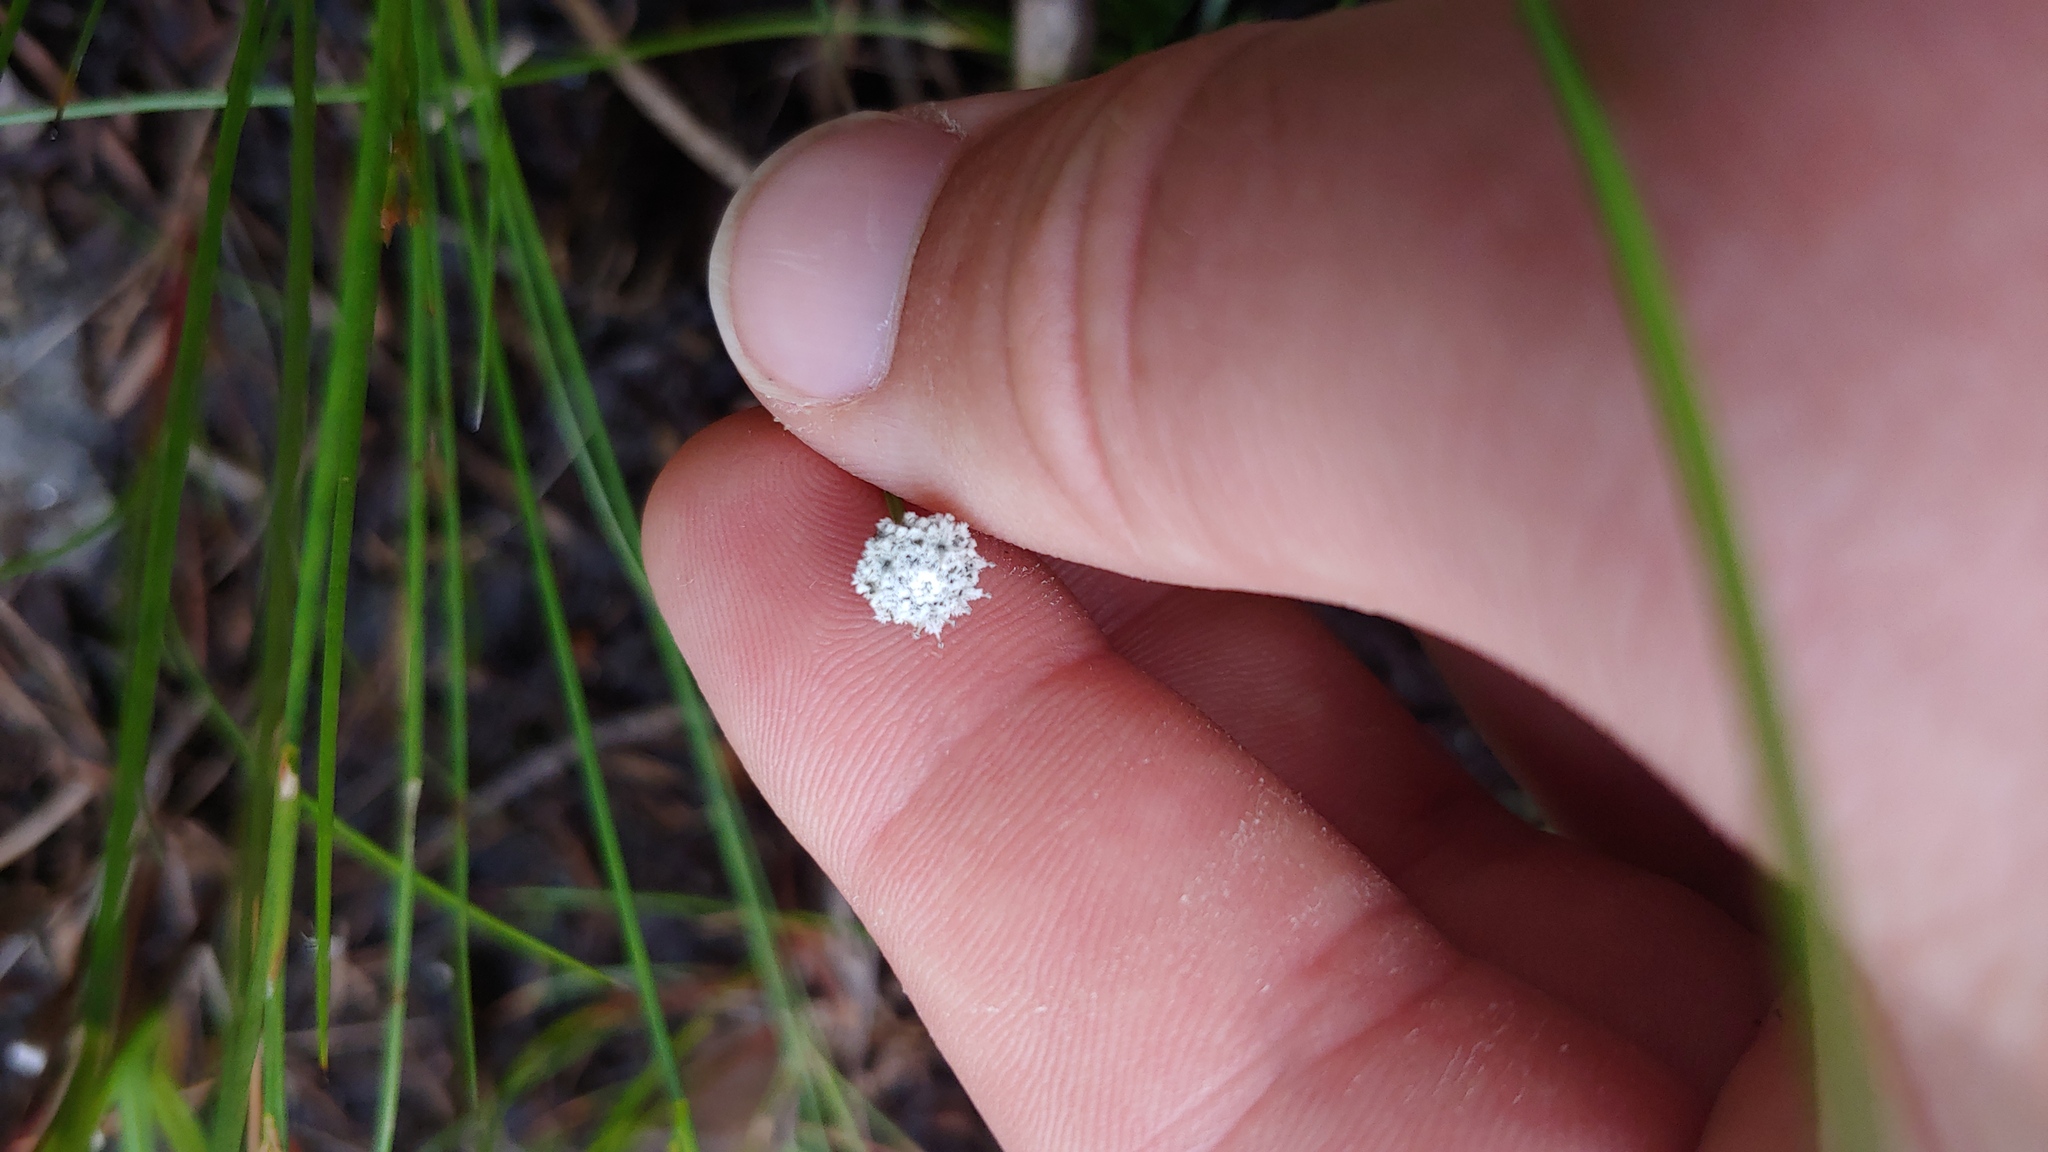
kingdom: Plantae
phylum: Tracheophyta
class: Liliopsida
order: Poales
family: Eriocaulaceae
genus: Eriocaulon
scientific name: Eriocaulon aquaticum
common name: Pipewort
